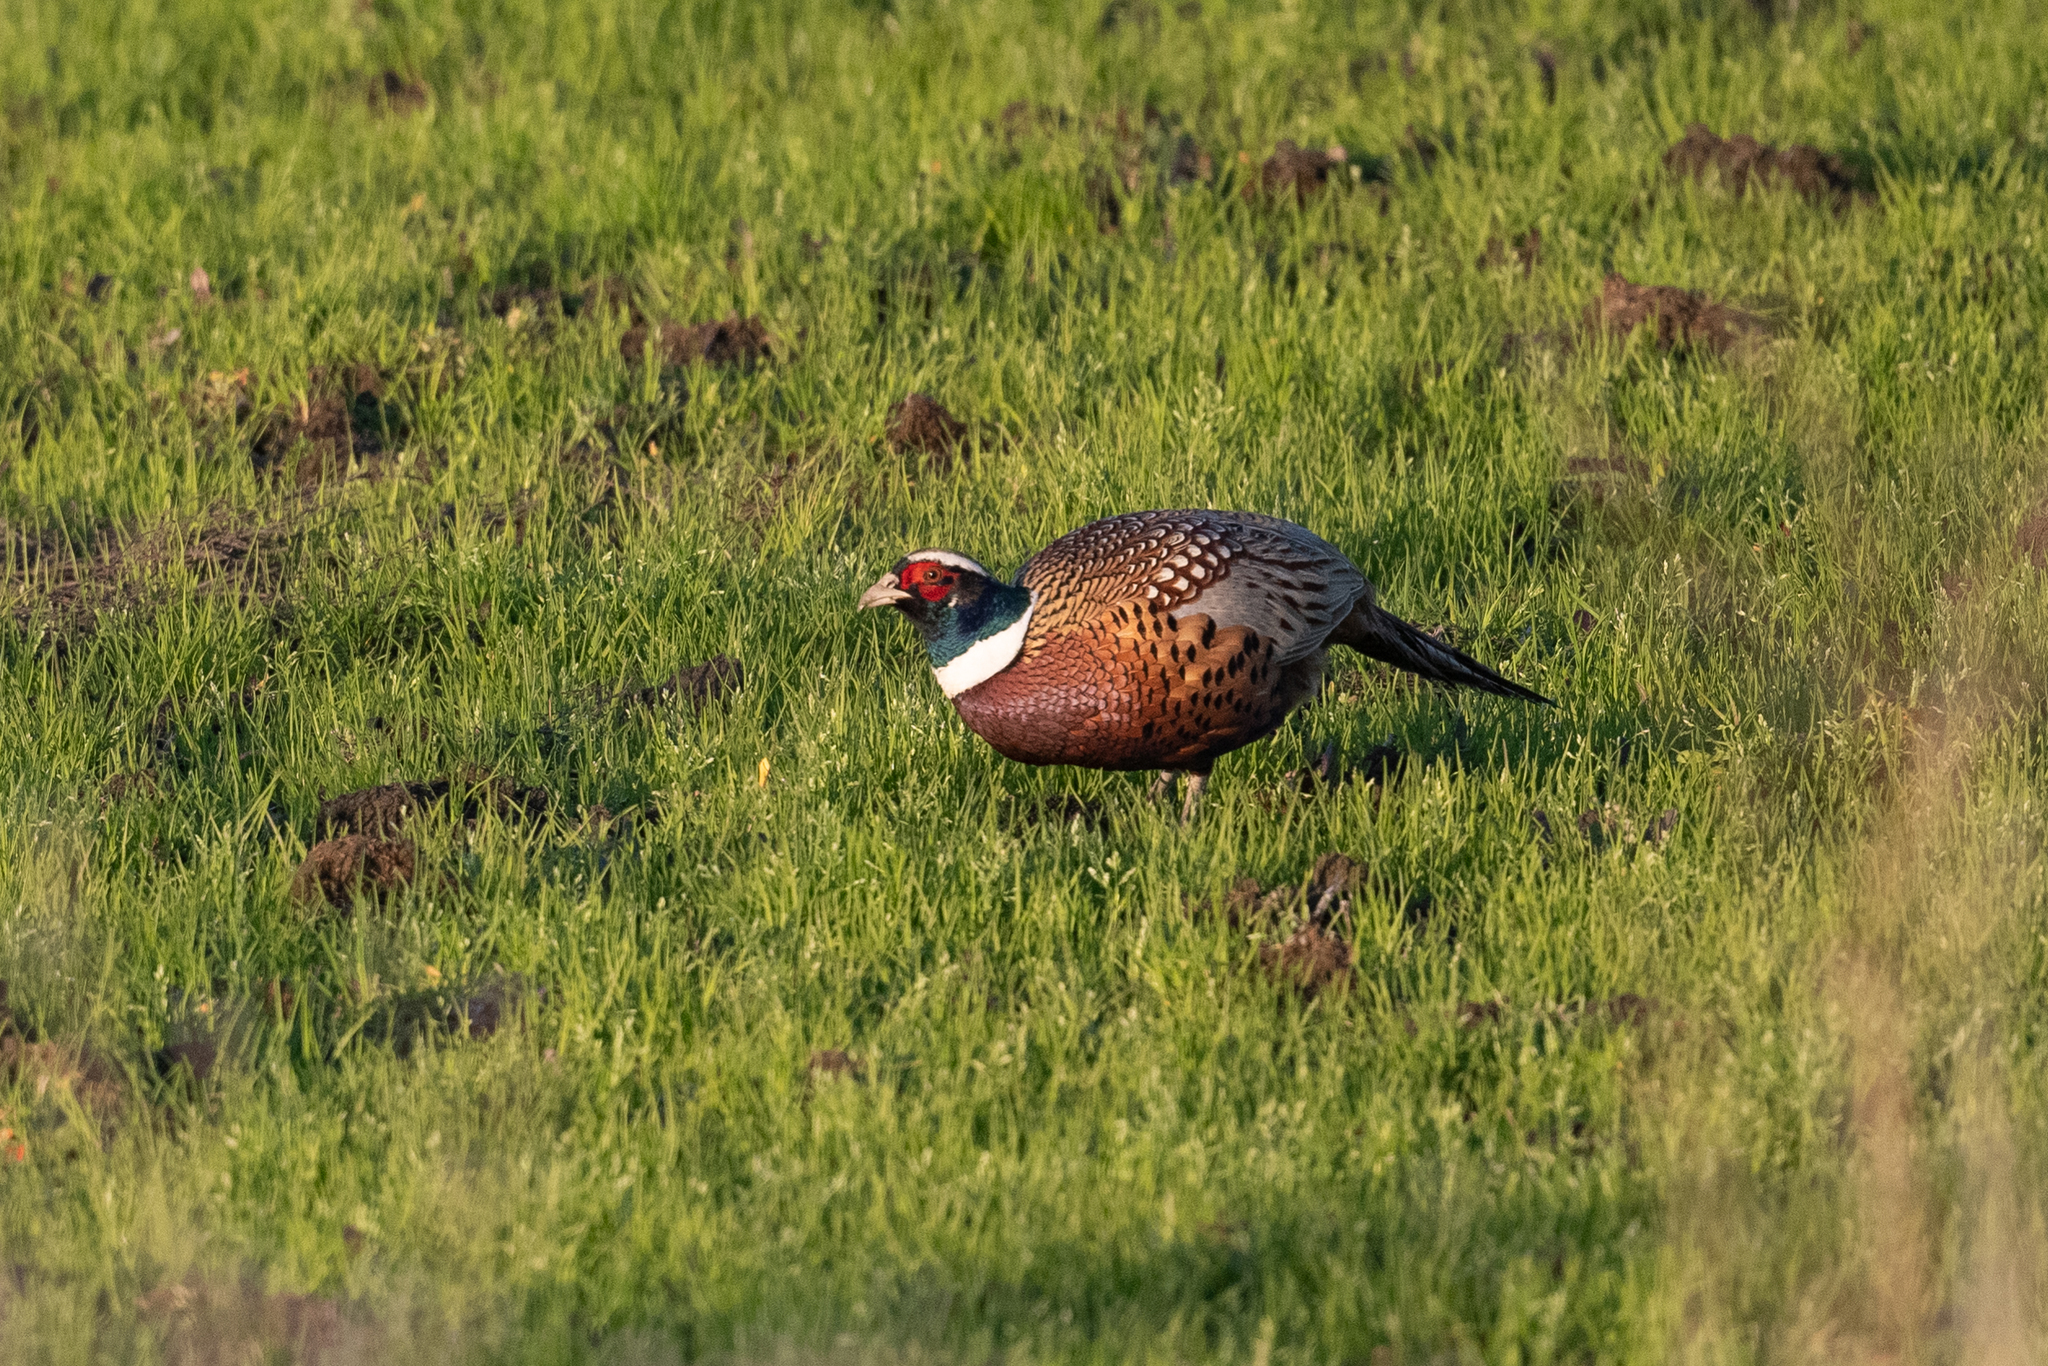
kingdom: Animalia
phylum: Chordata
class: Aves
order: Galliformes
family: Phasianidae
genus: Phasianus
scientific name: Phasianus colchicus
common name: Common pheasant
